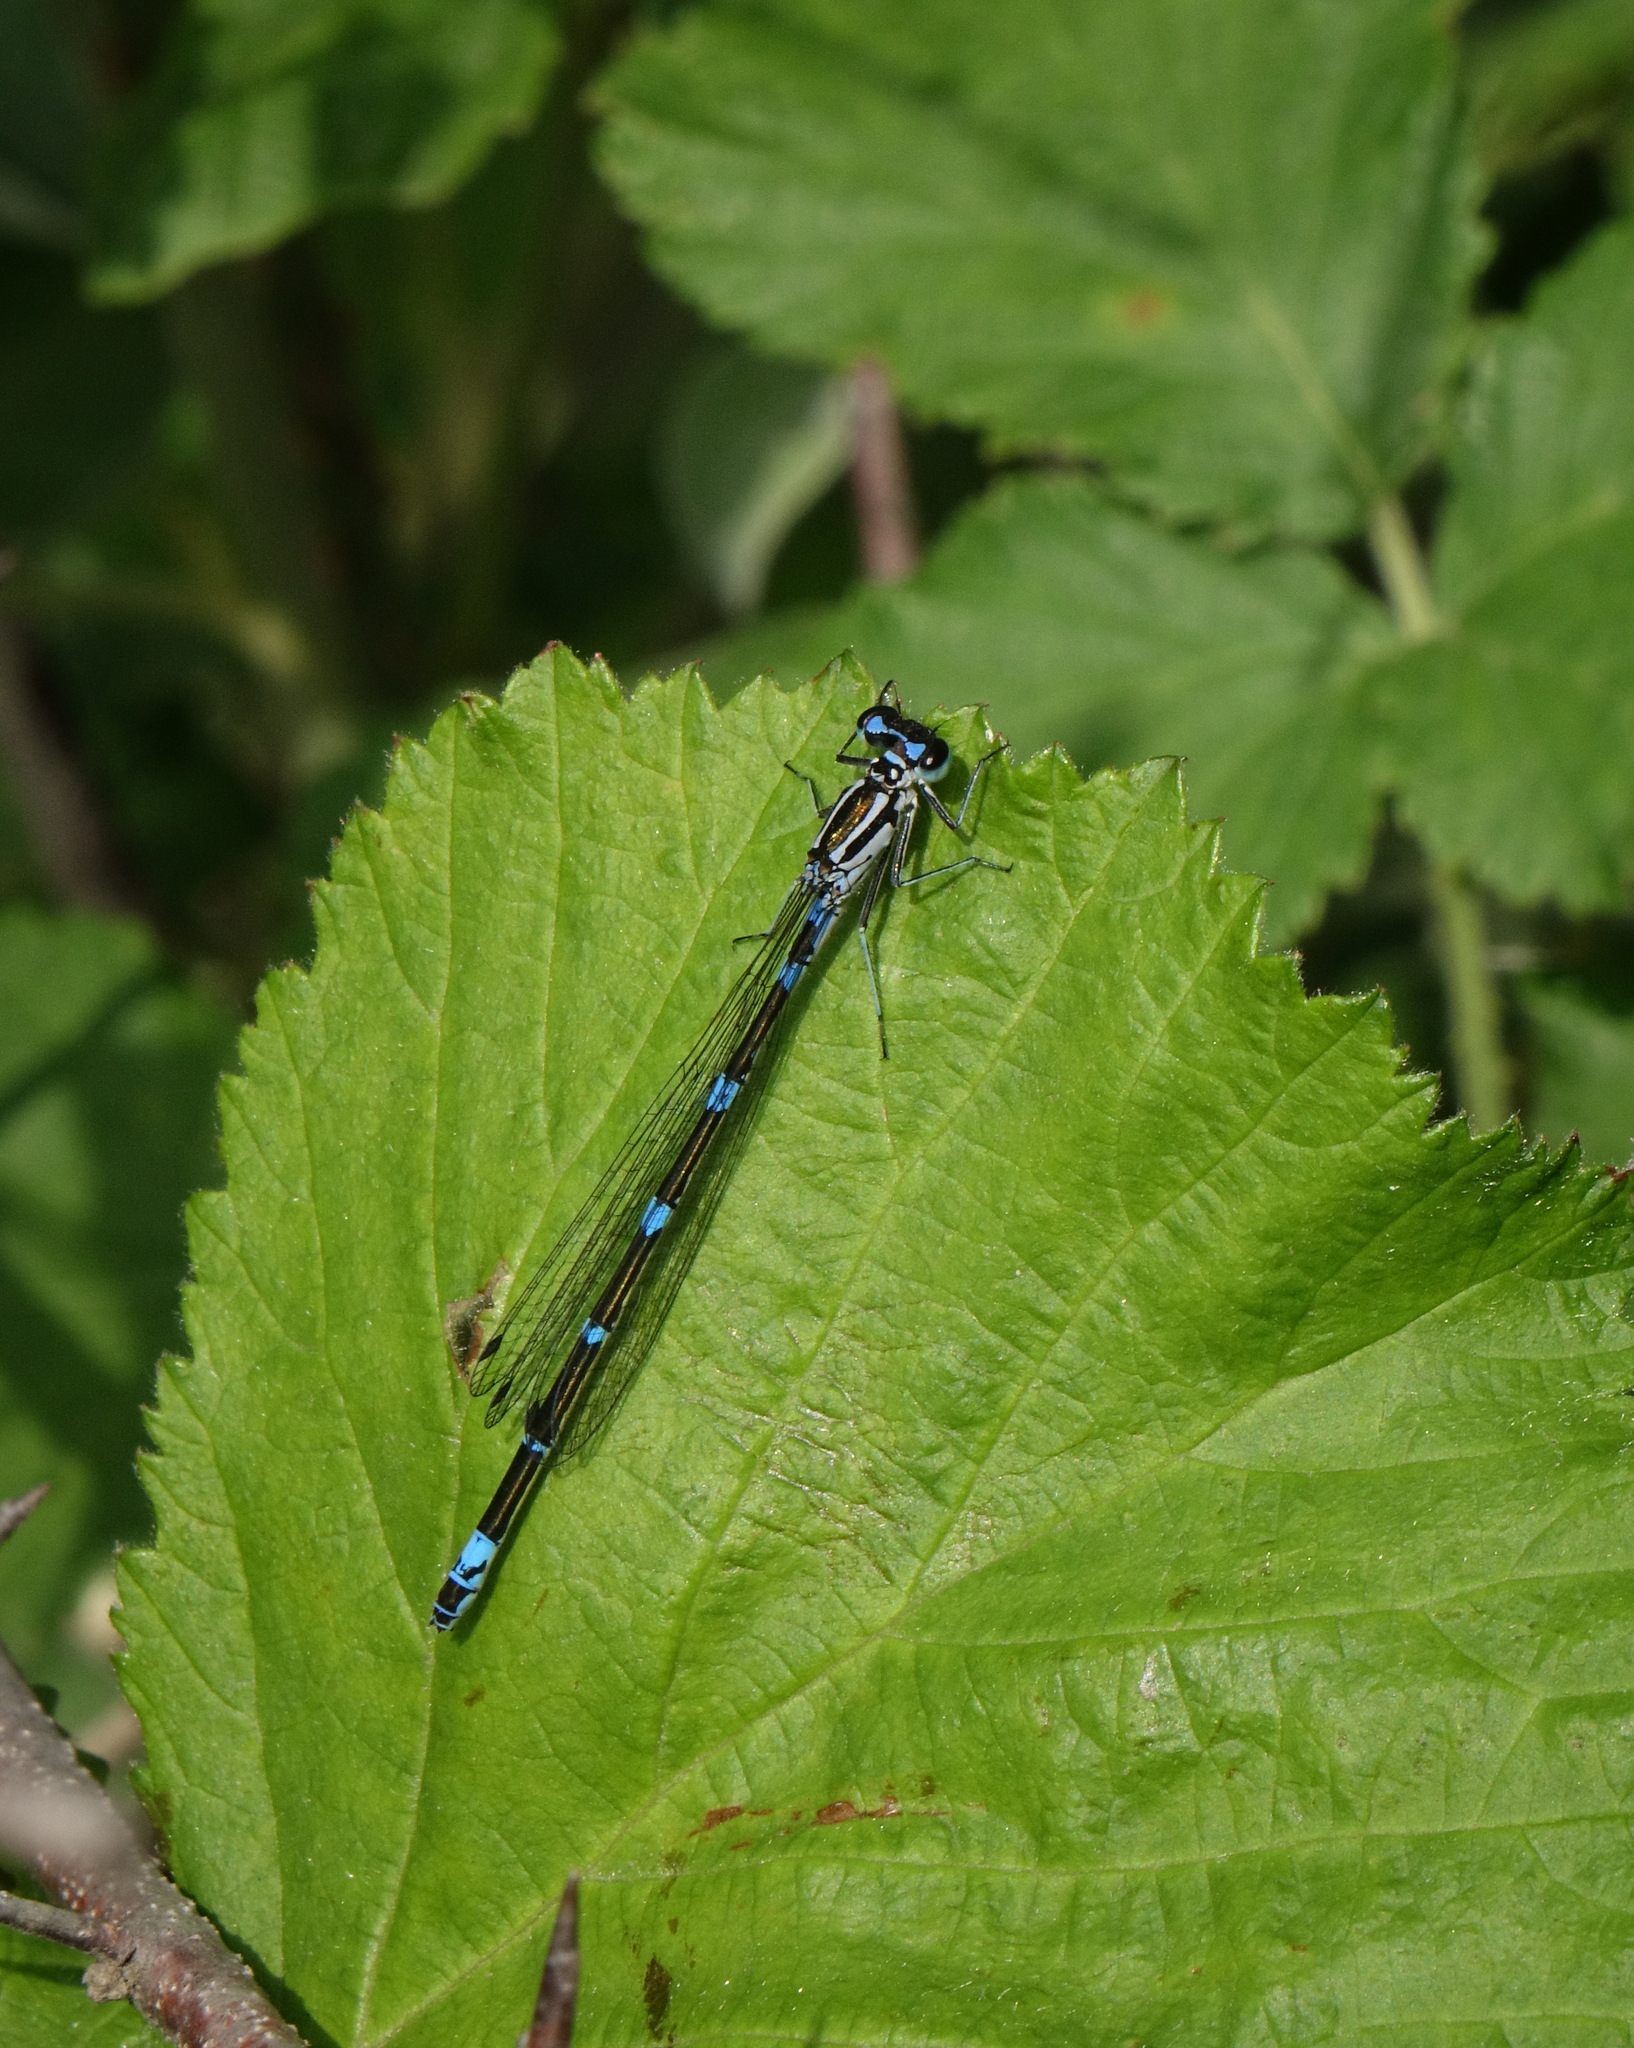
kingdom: Animalia
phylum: Arthropoda
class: Insecta
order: Odonata
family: Coenagrionidae
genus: Coenagrion
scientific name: Coenagrion pulchellum
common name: Variable bluet
